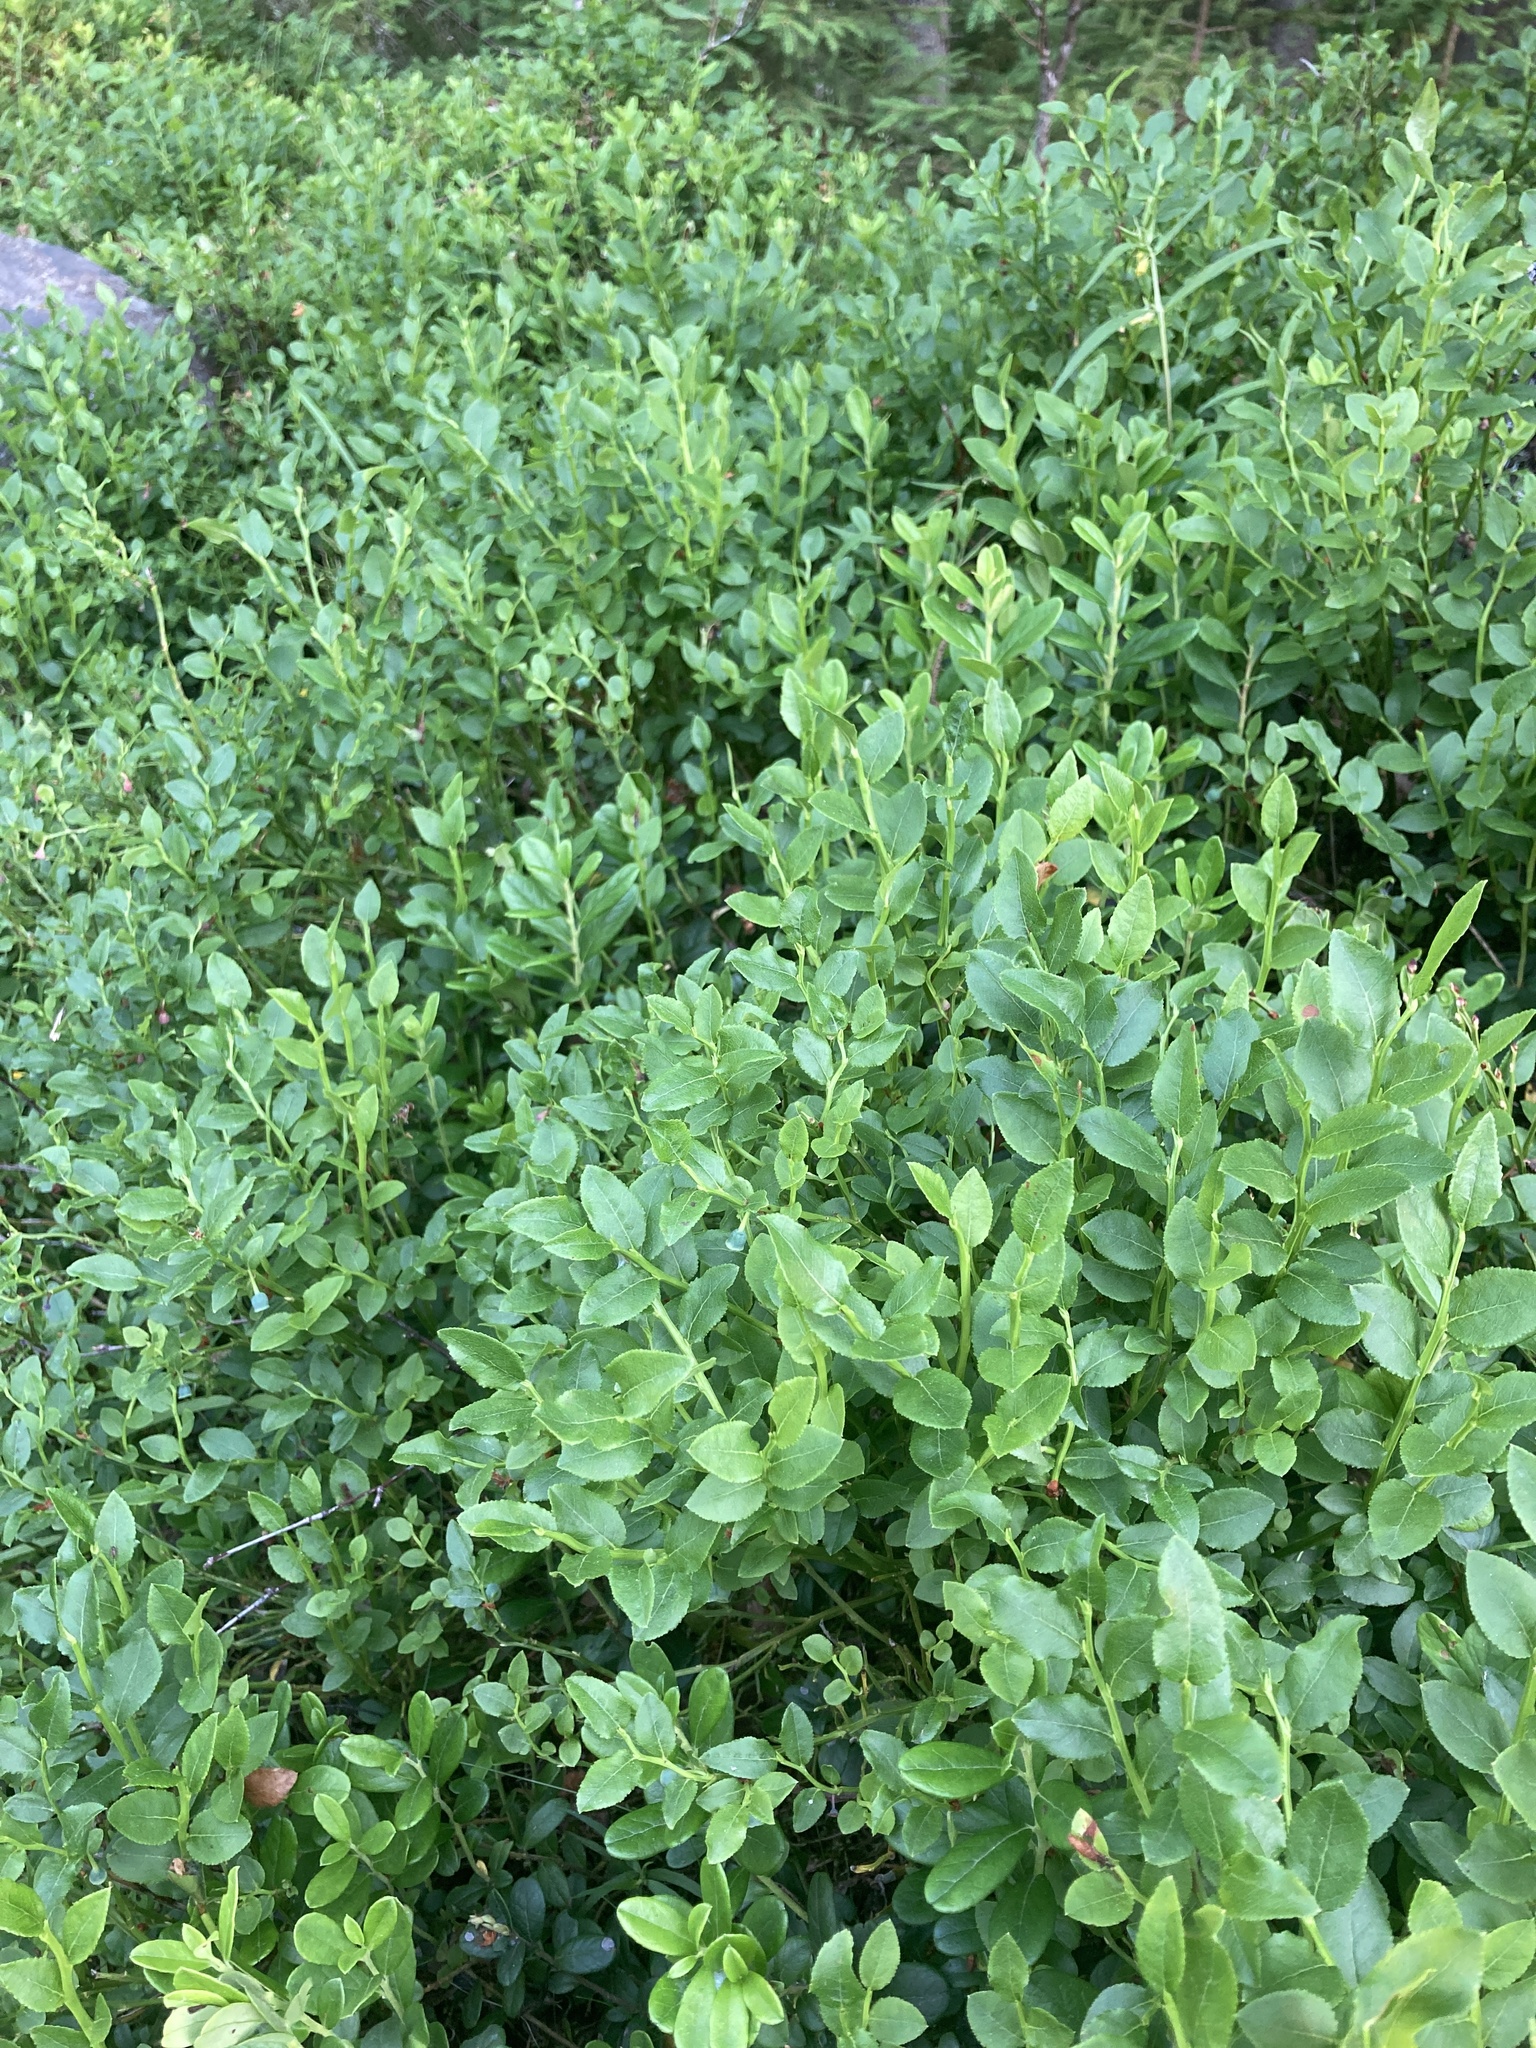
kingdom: Plantae
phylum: Tracheophyta
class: Magnoliopsida
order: Ericales
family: Ericaceae
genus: Vaccinium
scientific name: Vaccinium myrtillus
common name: Bilberry
